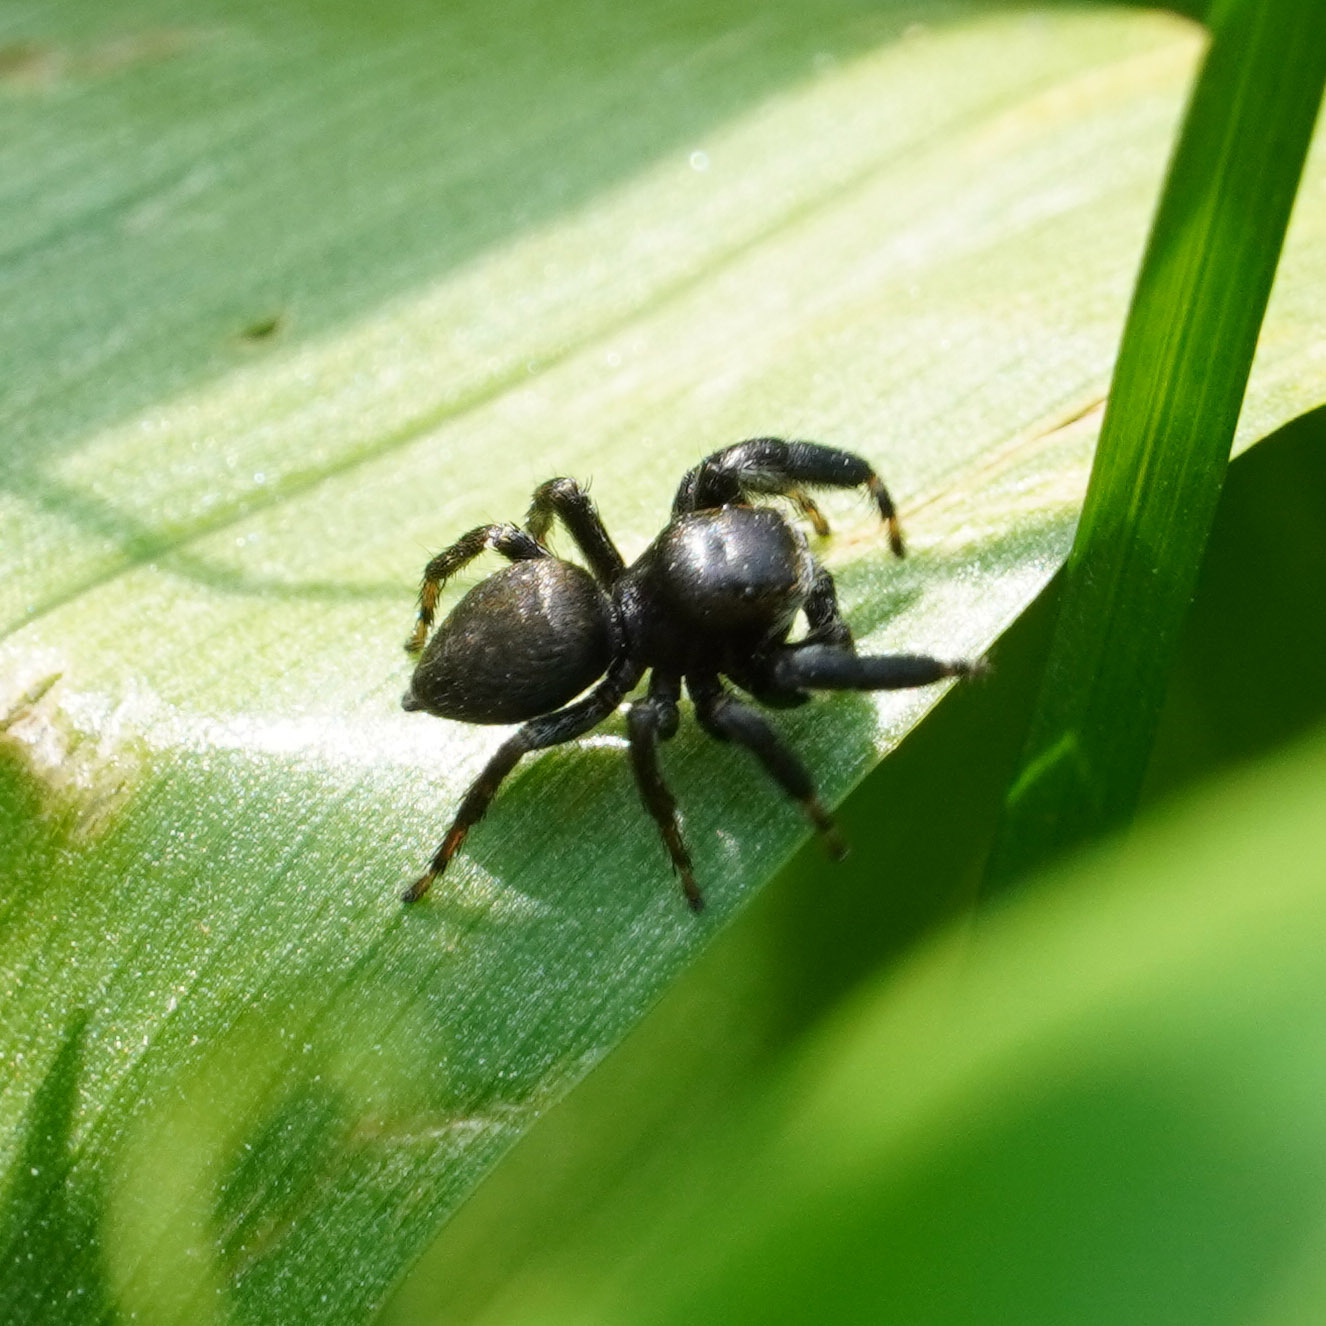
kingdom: Animalia
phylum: Arthropoda
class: Arachnida
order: Araneae
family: Salticidae
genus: Evarcha
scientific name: Evarcha arcuata
